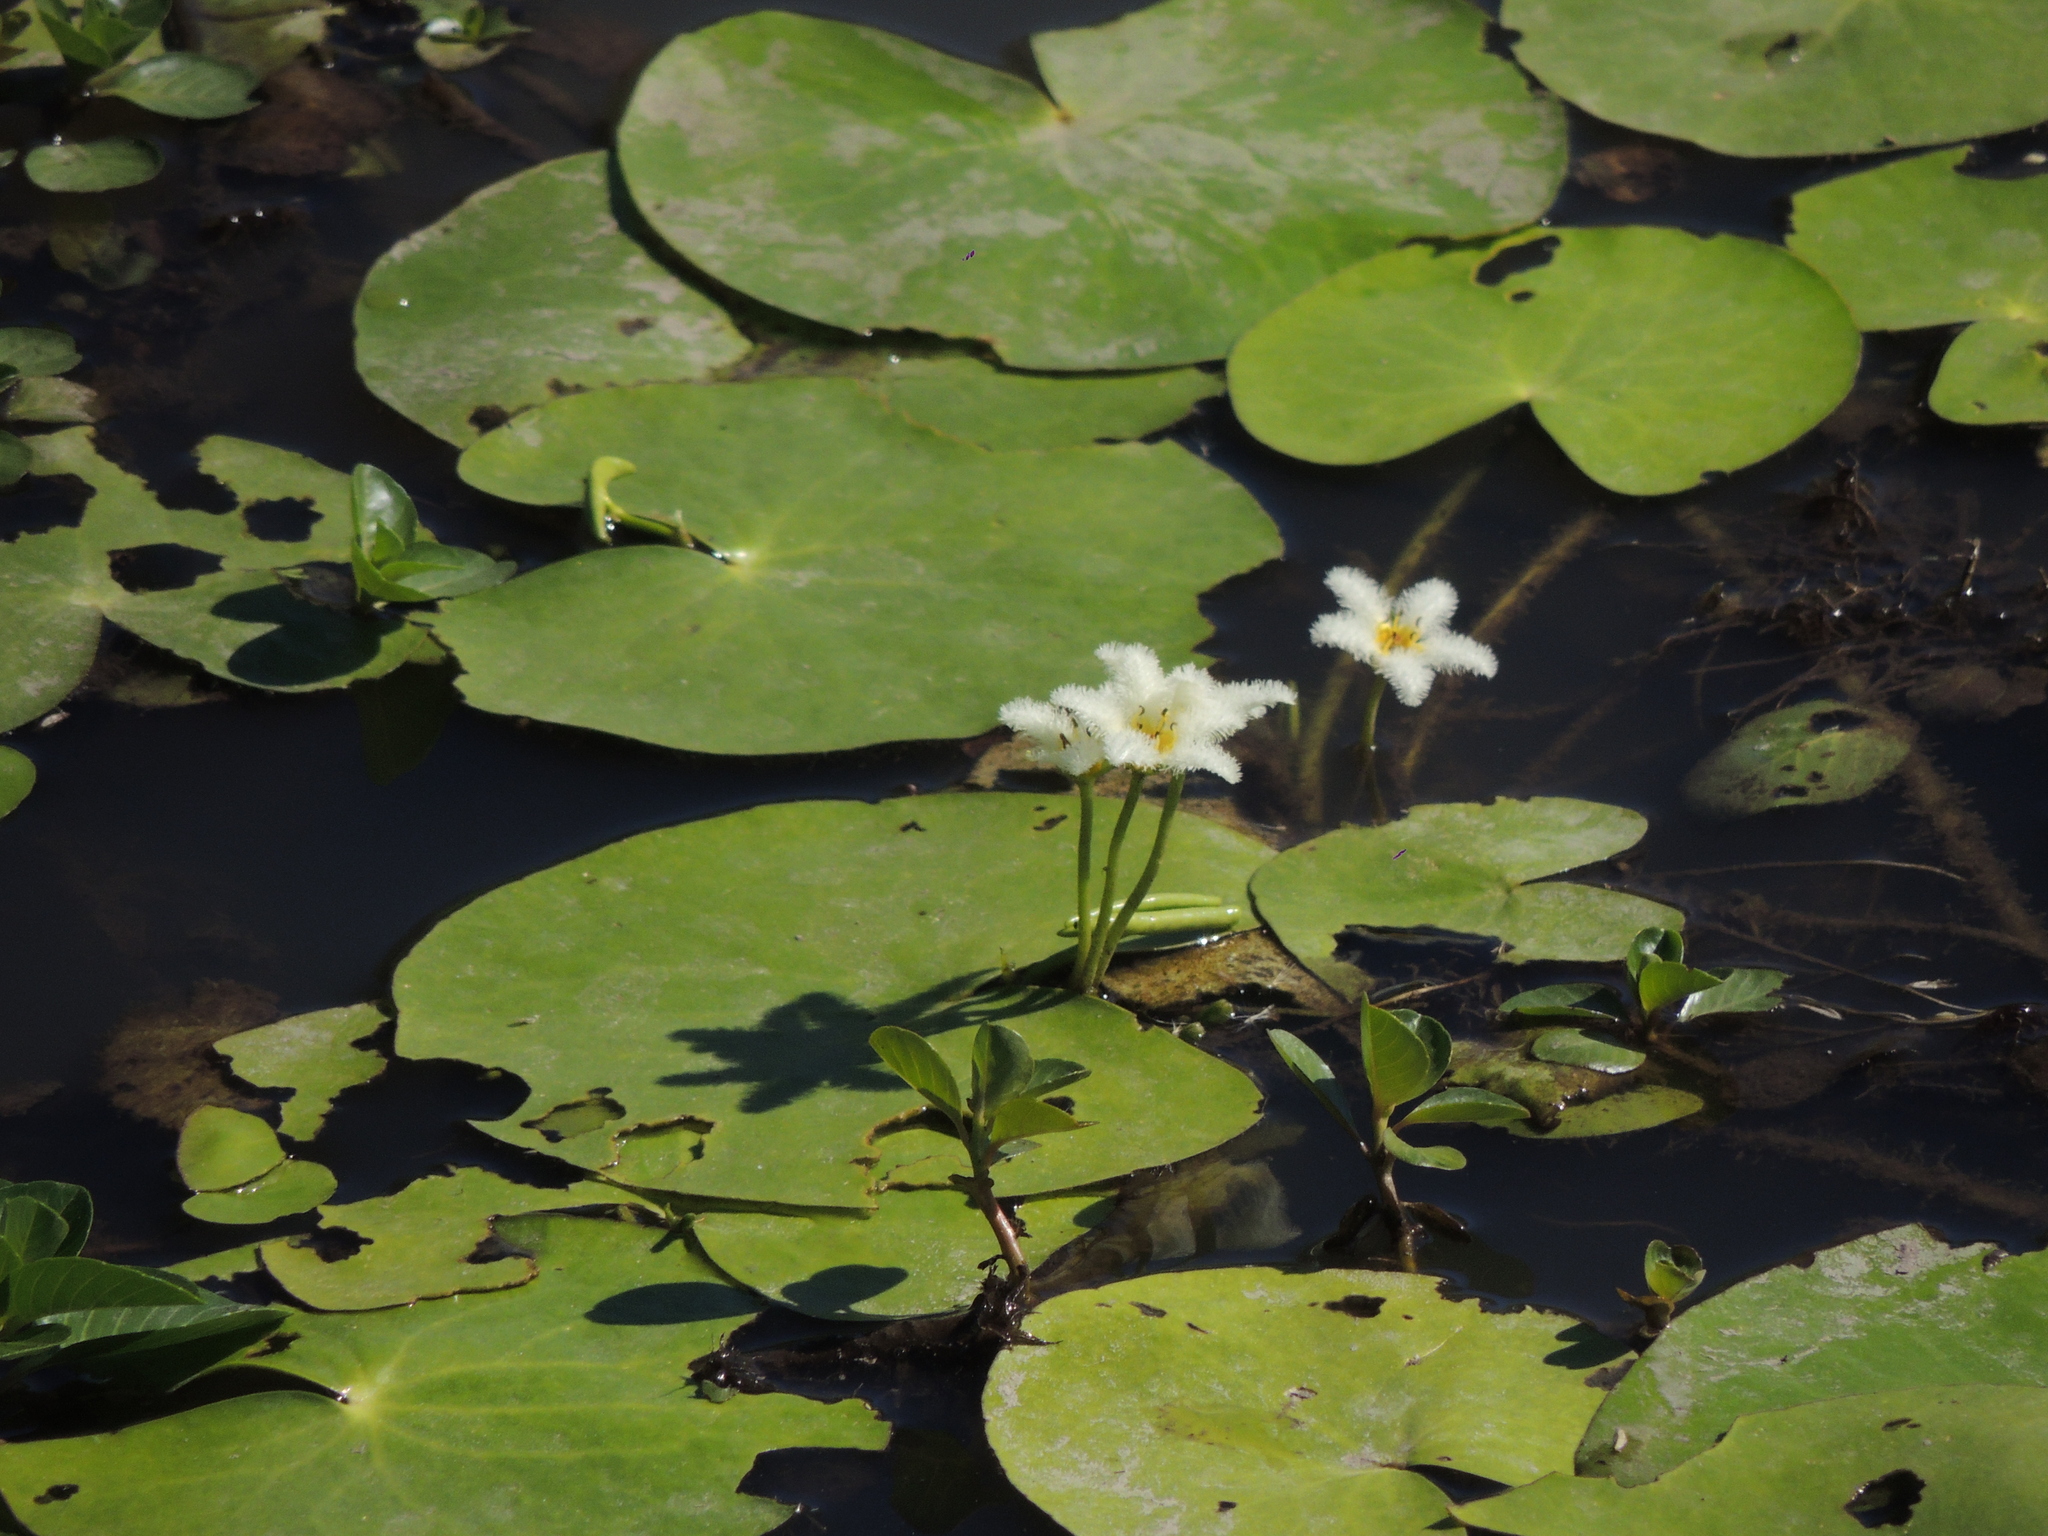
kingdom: Plantae
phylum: Tracheophyta
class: Magnoliopsida
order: Asterales
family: Menyanthaceae
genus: Nymphoides
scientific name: Nymphoides humboldtiana
